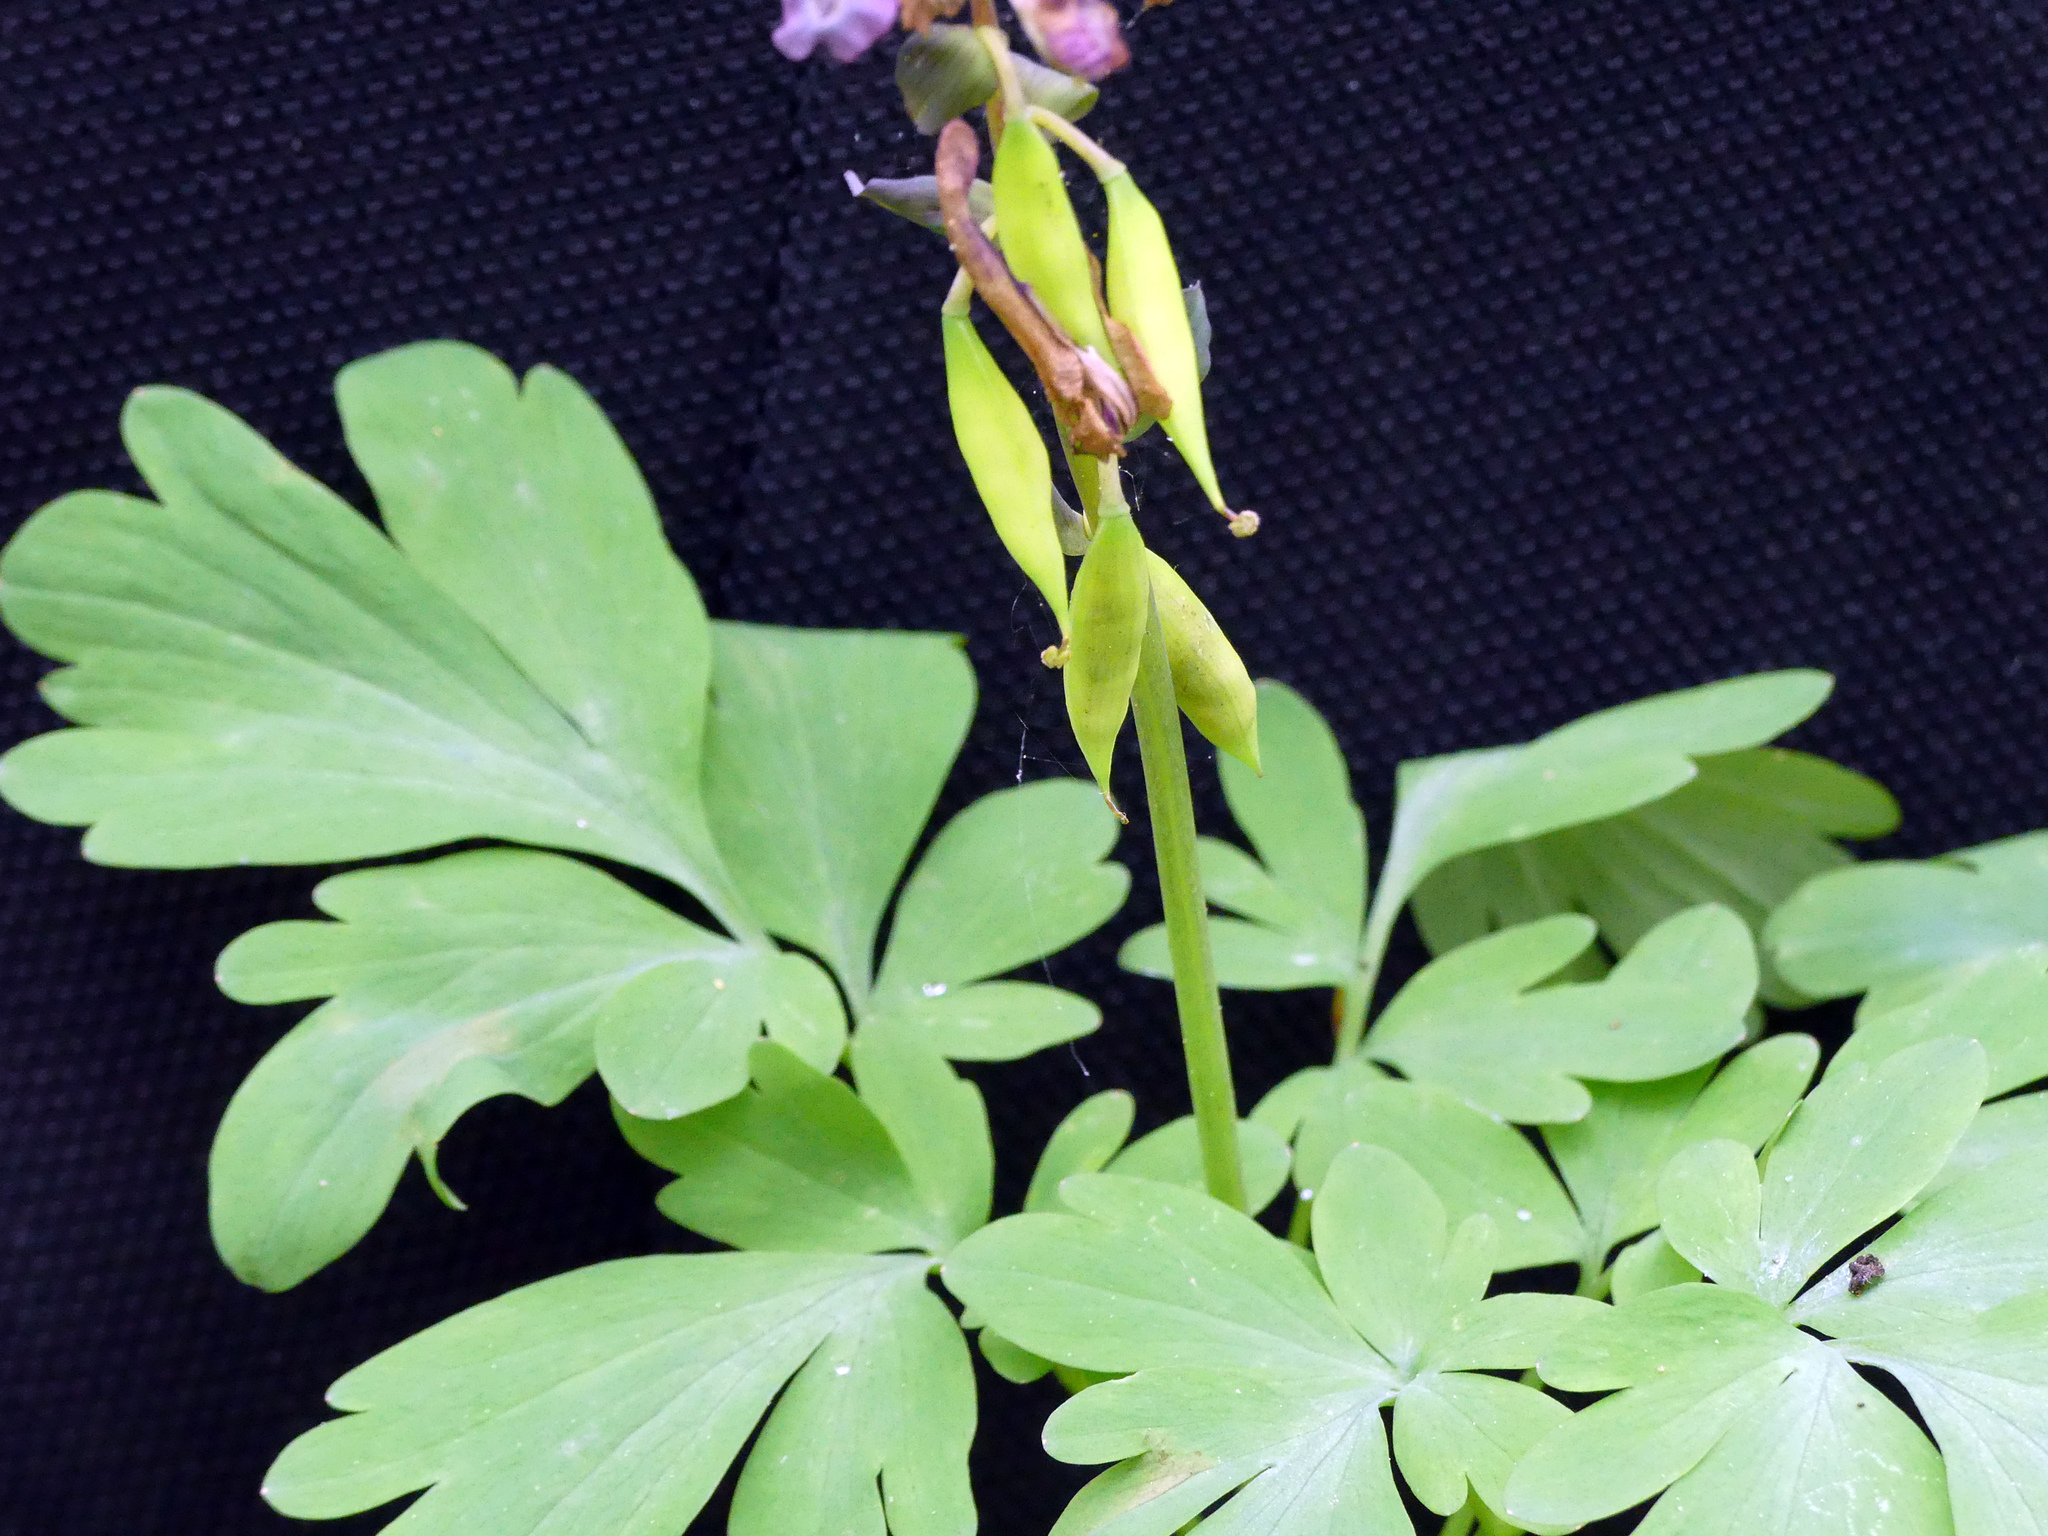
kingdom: Plantae
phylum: Tracheophyta
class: Magnoliopsida
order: Ranunculales
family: Papaveraceae
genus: Corydalis
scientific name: Corydalis cava
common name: Hollowroot
